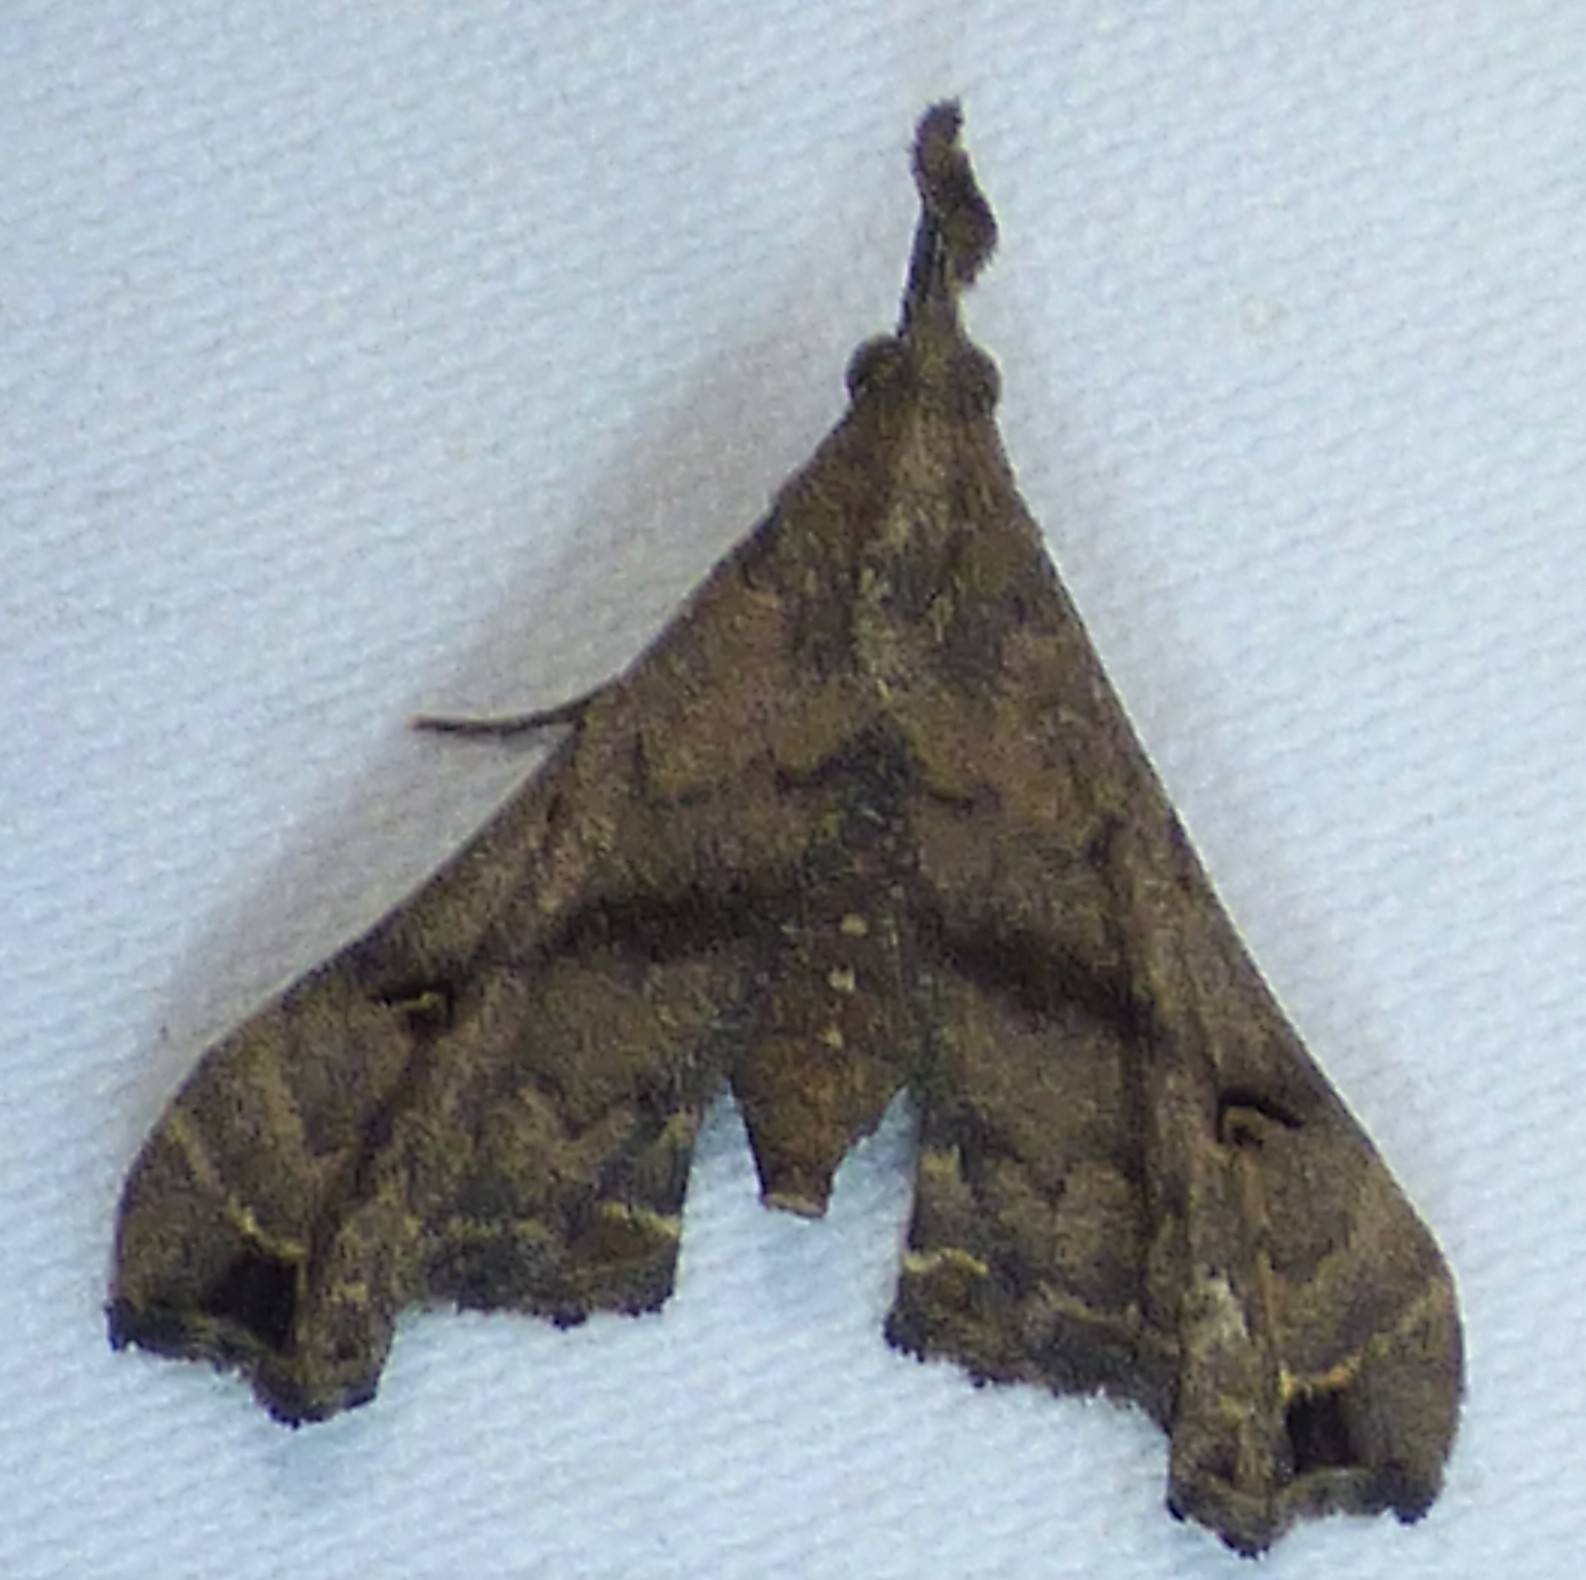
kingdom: Animalia
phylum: Arthropoda
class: Insecta
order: Lepidoptera
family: Erebidae
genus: Palthis
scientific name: Palthis asopialis
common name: Faint-spotted palthis moth
